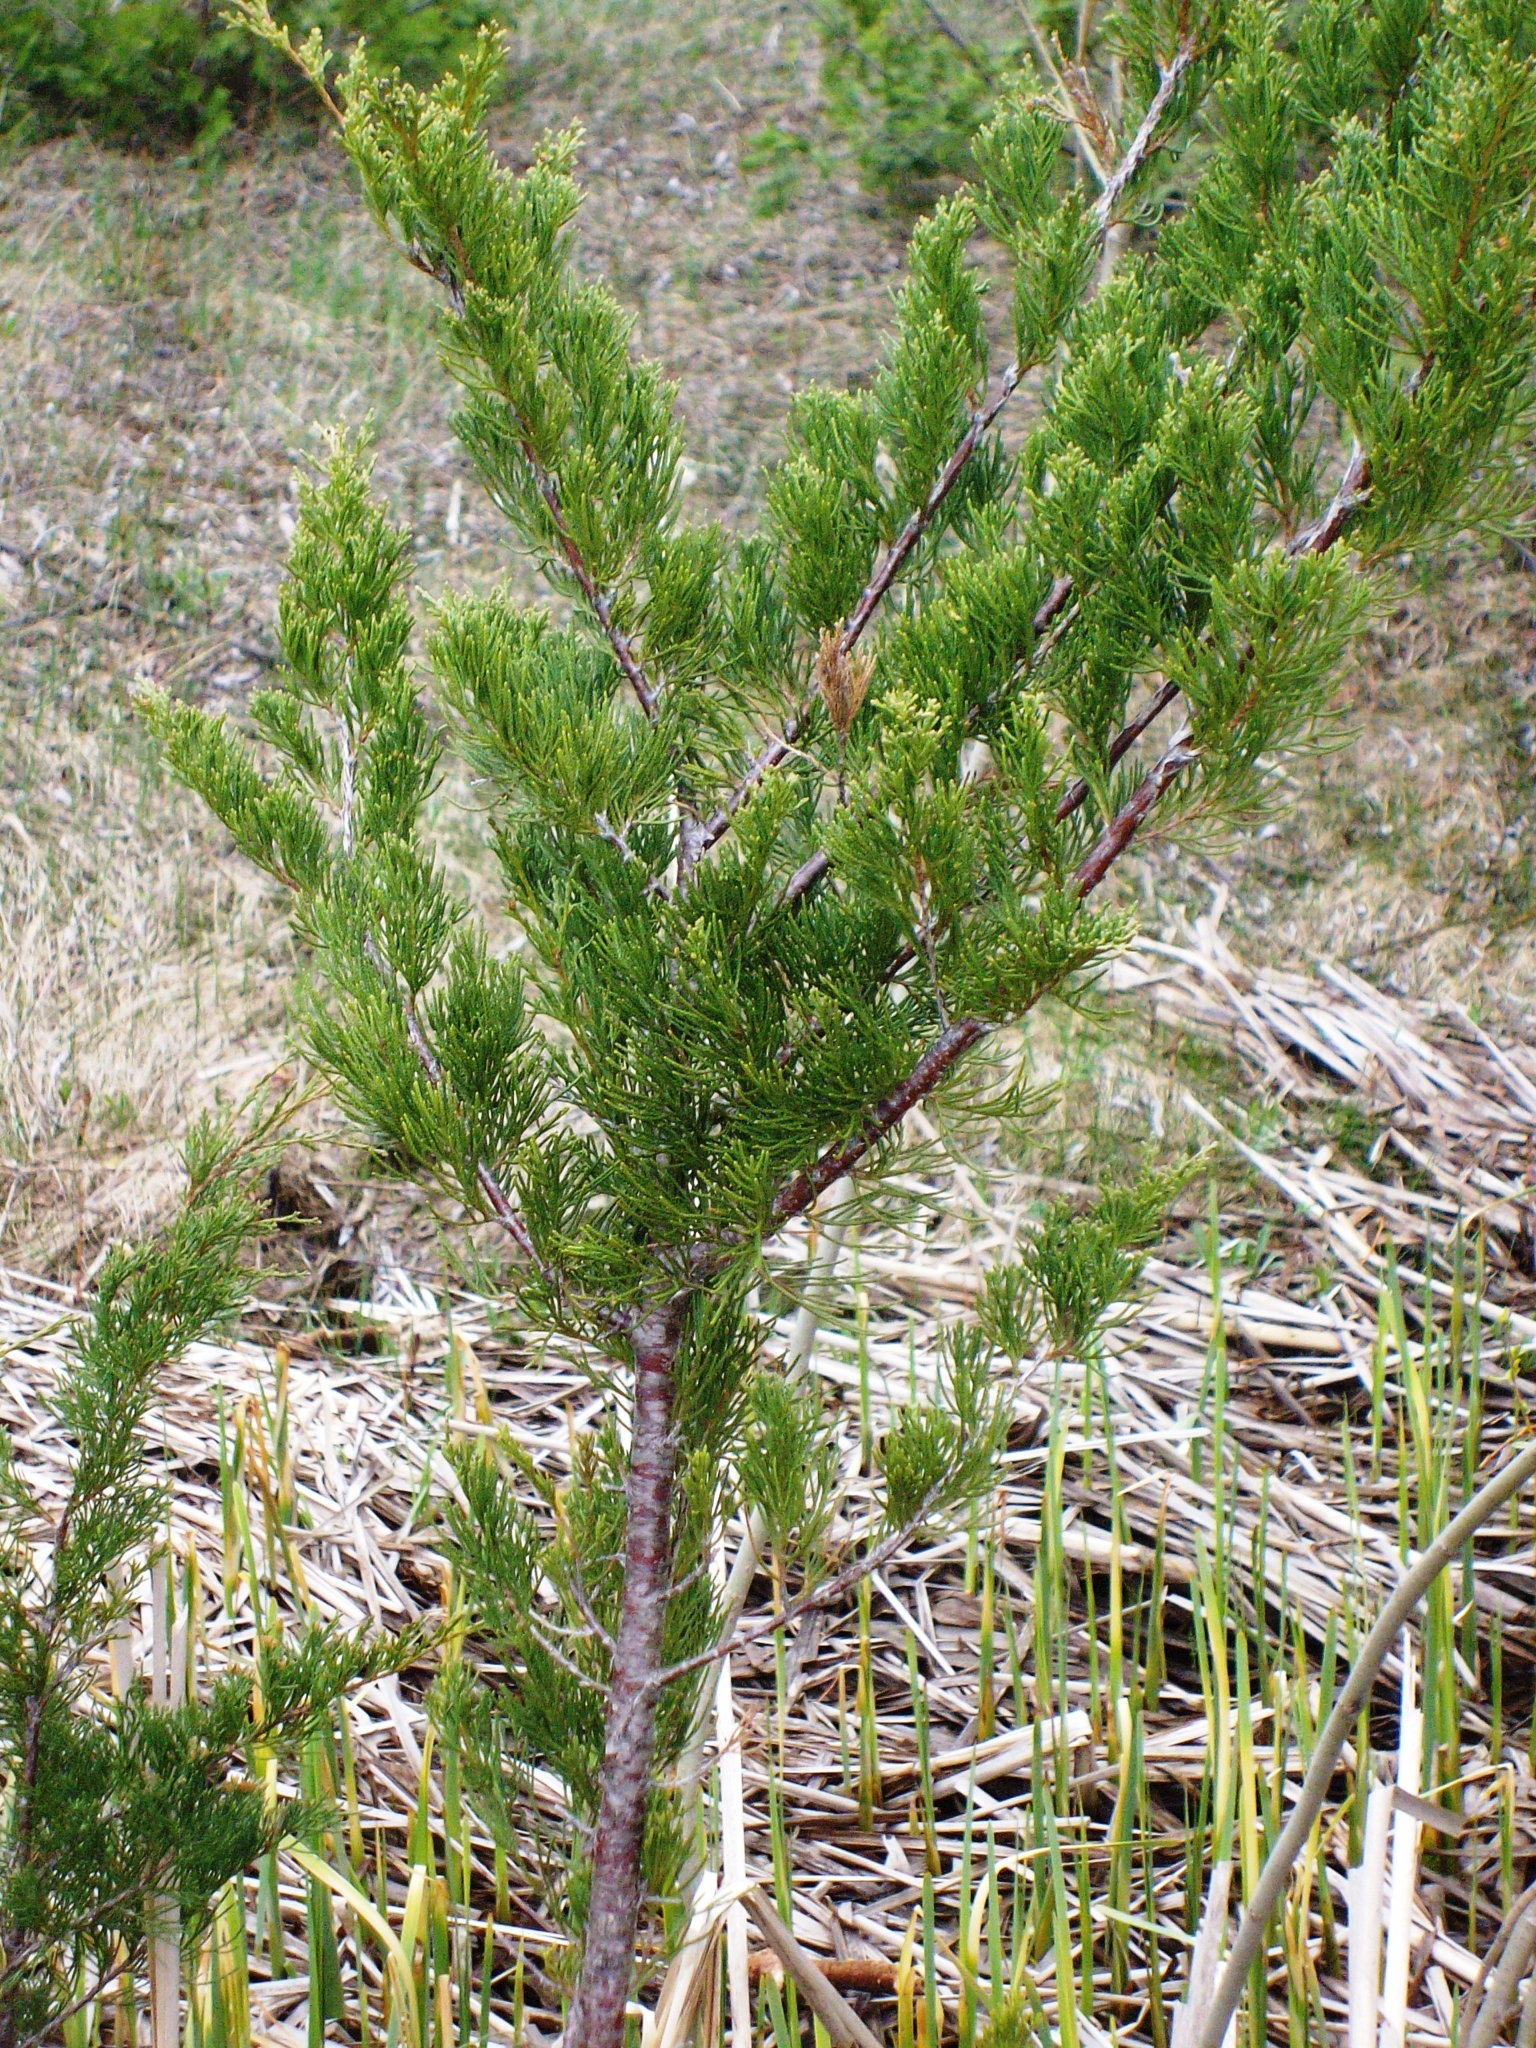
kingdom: Plantae
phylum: Tracheophyta
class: Pinopsida
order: Pinales
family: Cupressaceae
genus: Juniperus
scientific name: Juniperus virginiana
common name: Red juniper
